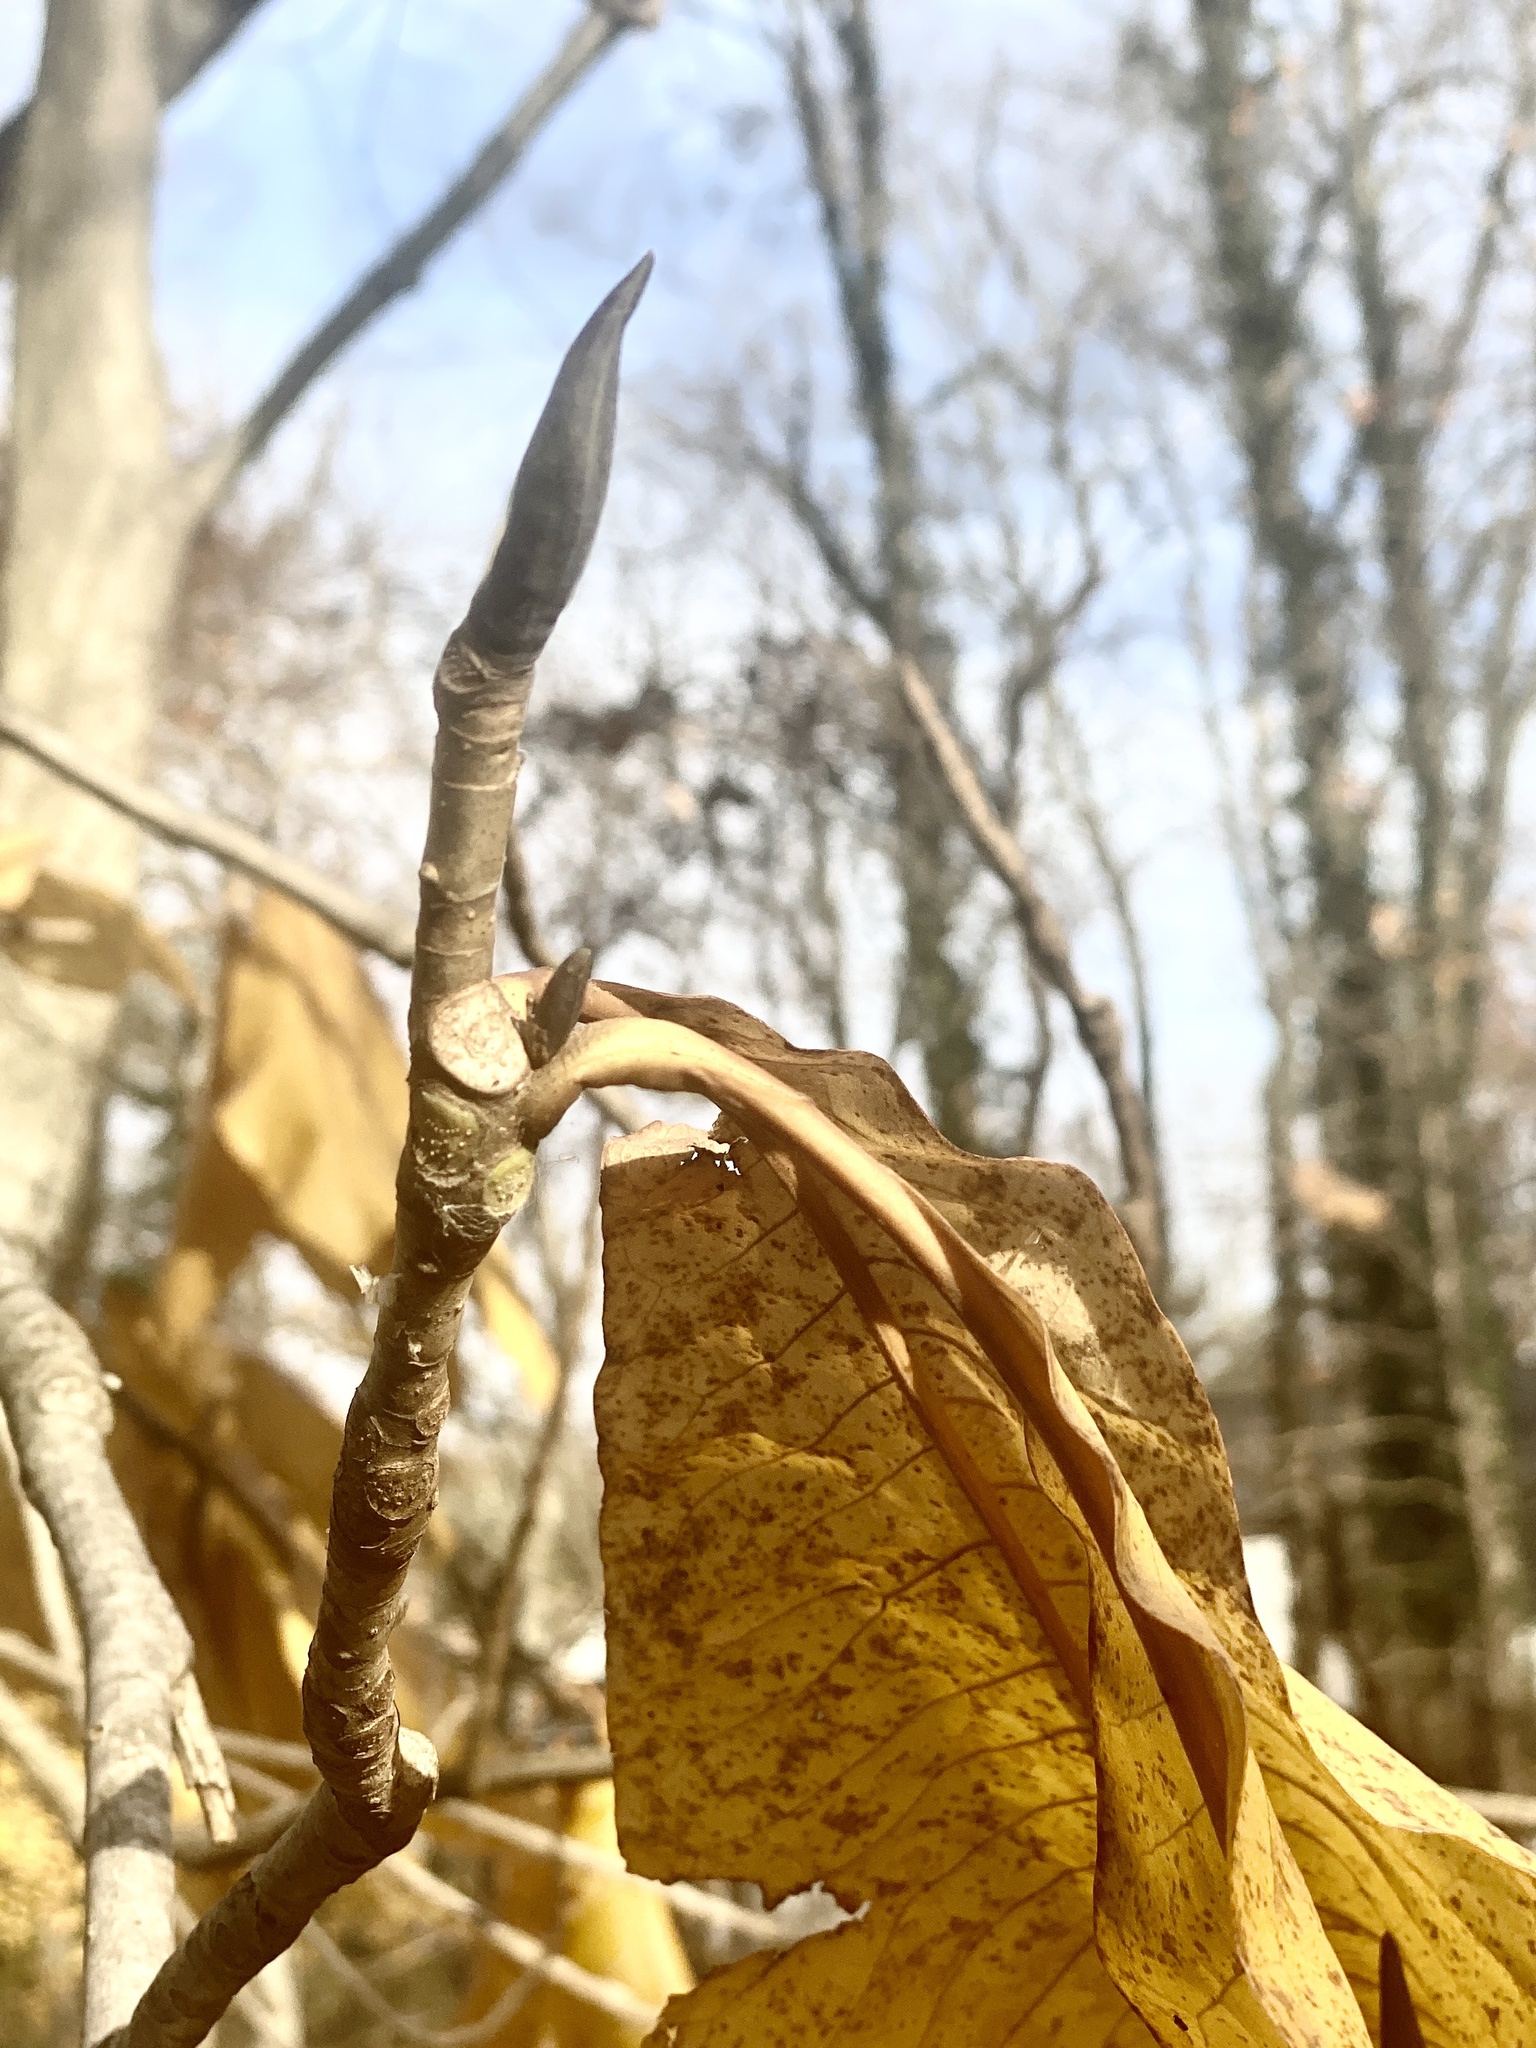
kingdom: Plantae
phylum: Tracheophyta
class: Magnoliopsida
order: Magnoliales
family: Magnoliaceae
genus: Magnolia
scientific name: Magnolia tripetala
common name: Umbrella magnolia
